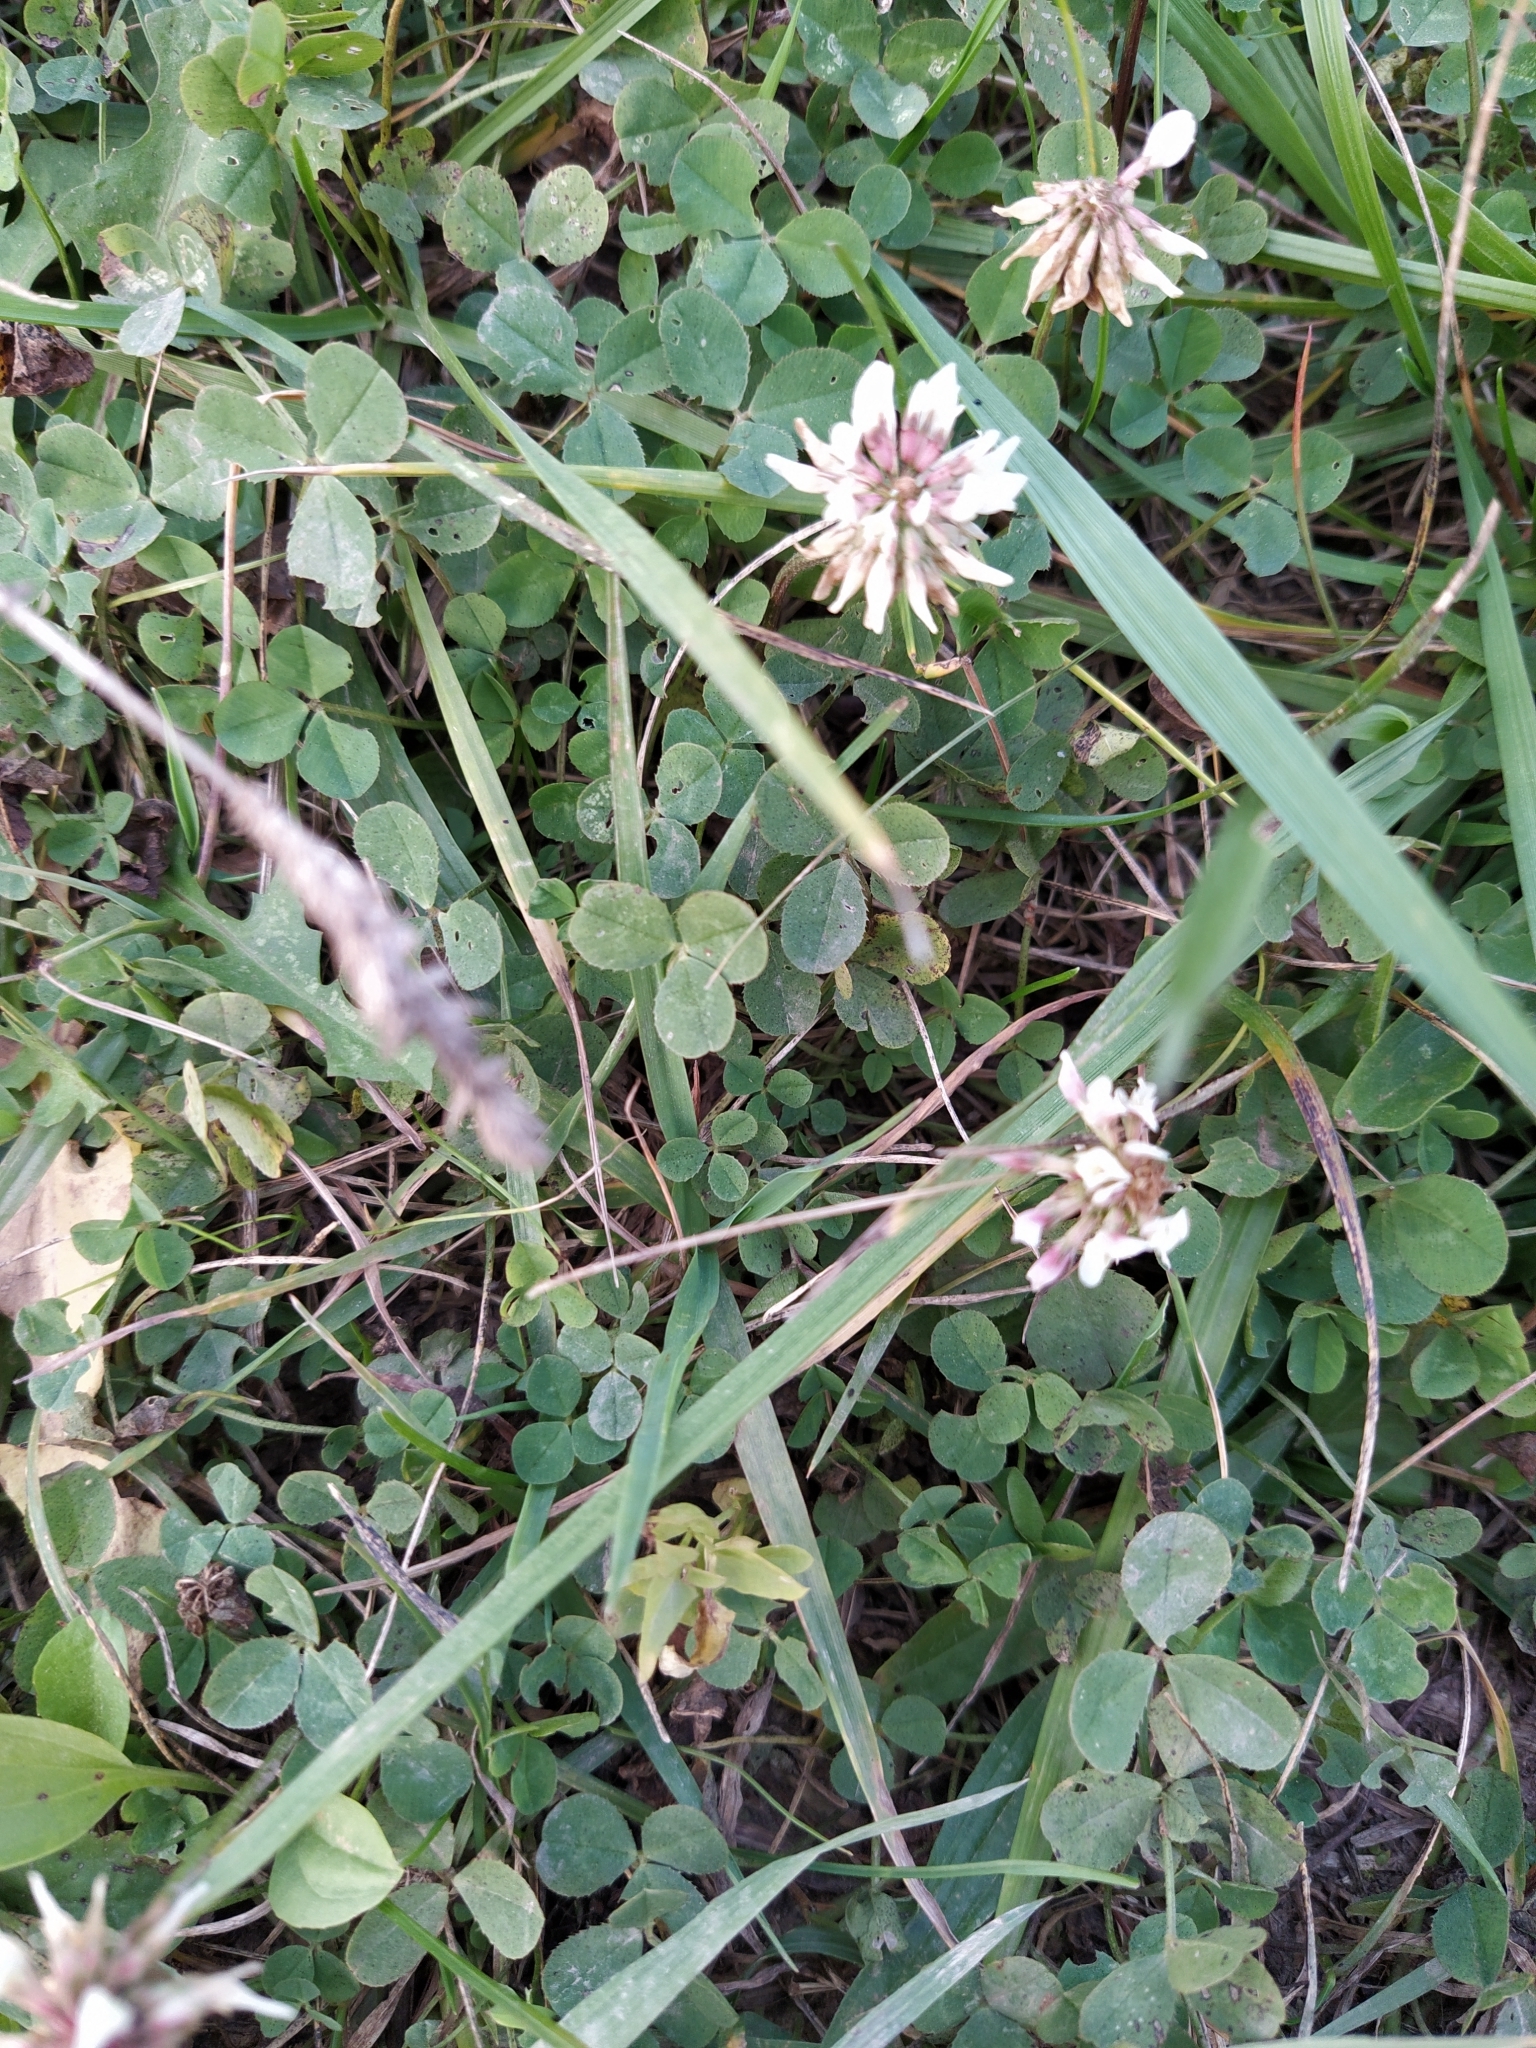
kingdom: Plantae
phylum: Tracheophyta
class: Magnoliopsida
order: Fabales
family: Fabaceae
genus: Trifolium
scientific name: Trifolium repens
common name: White clover
